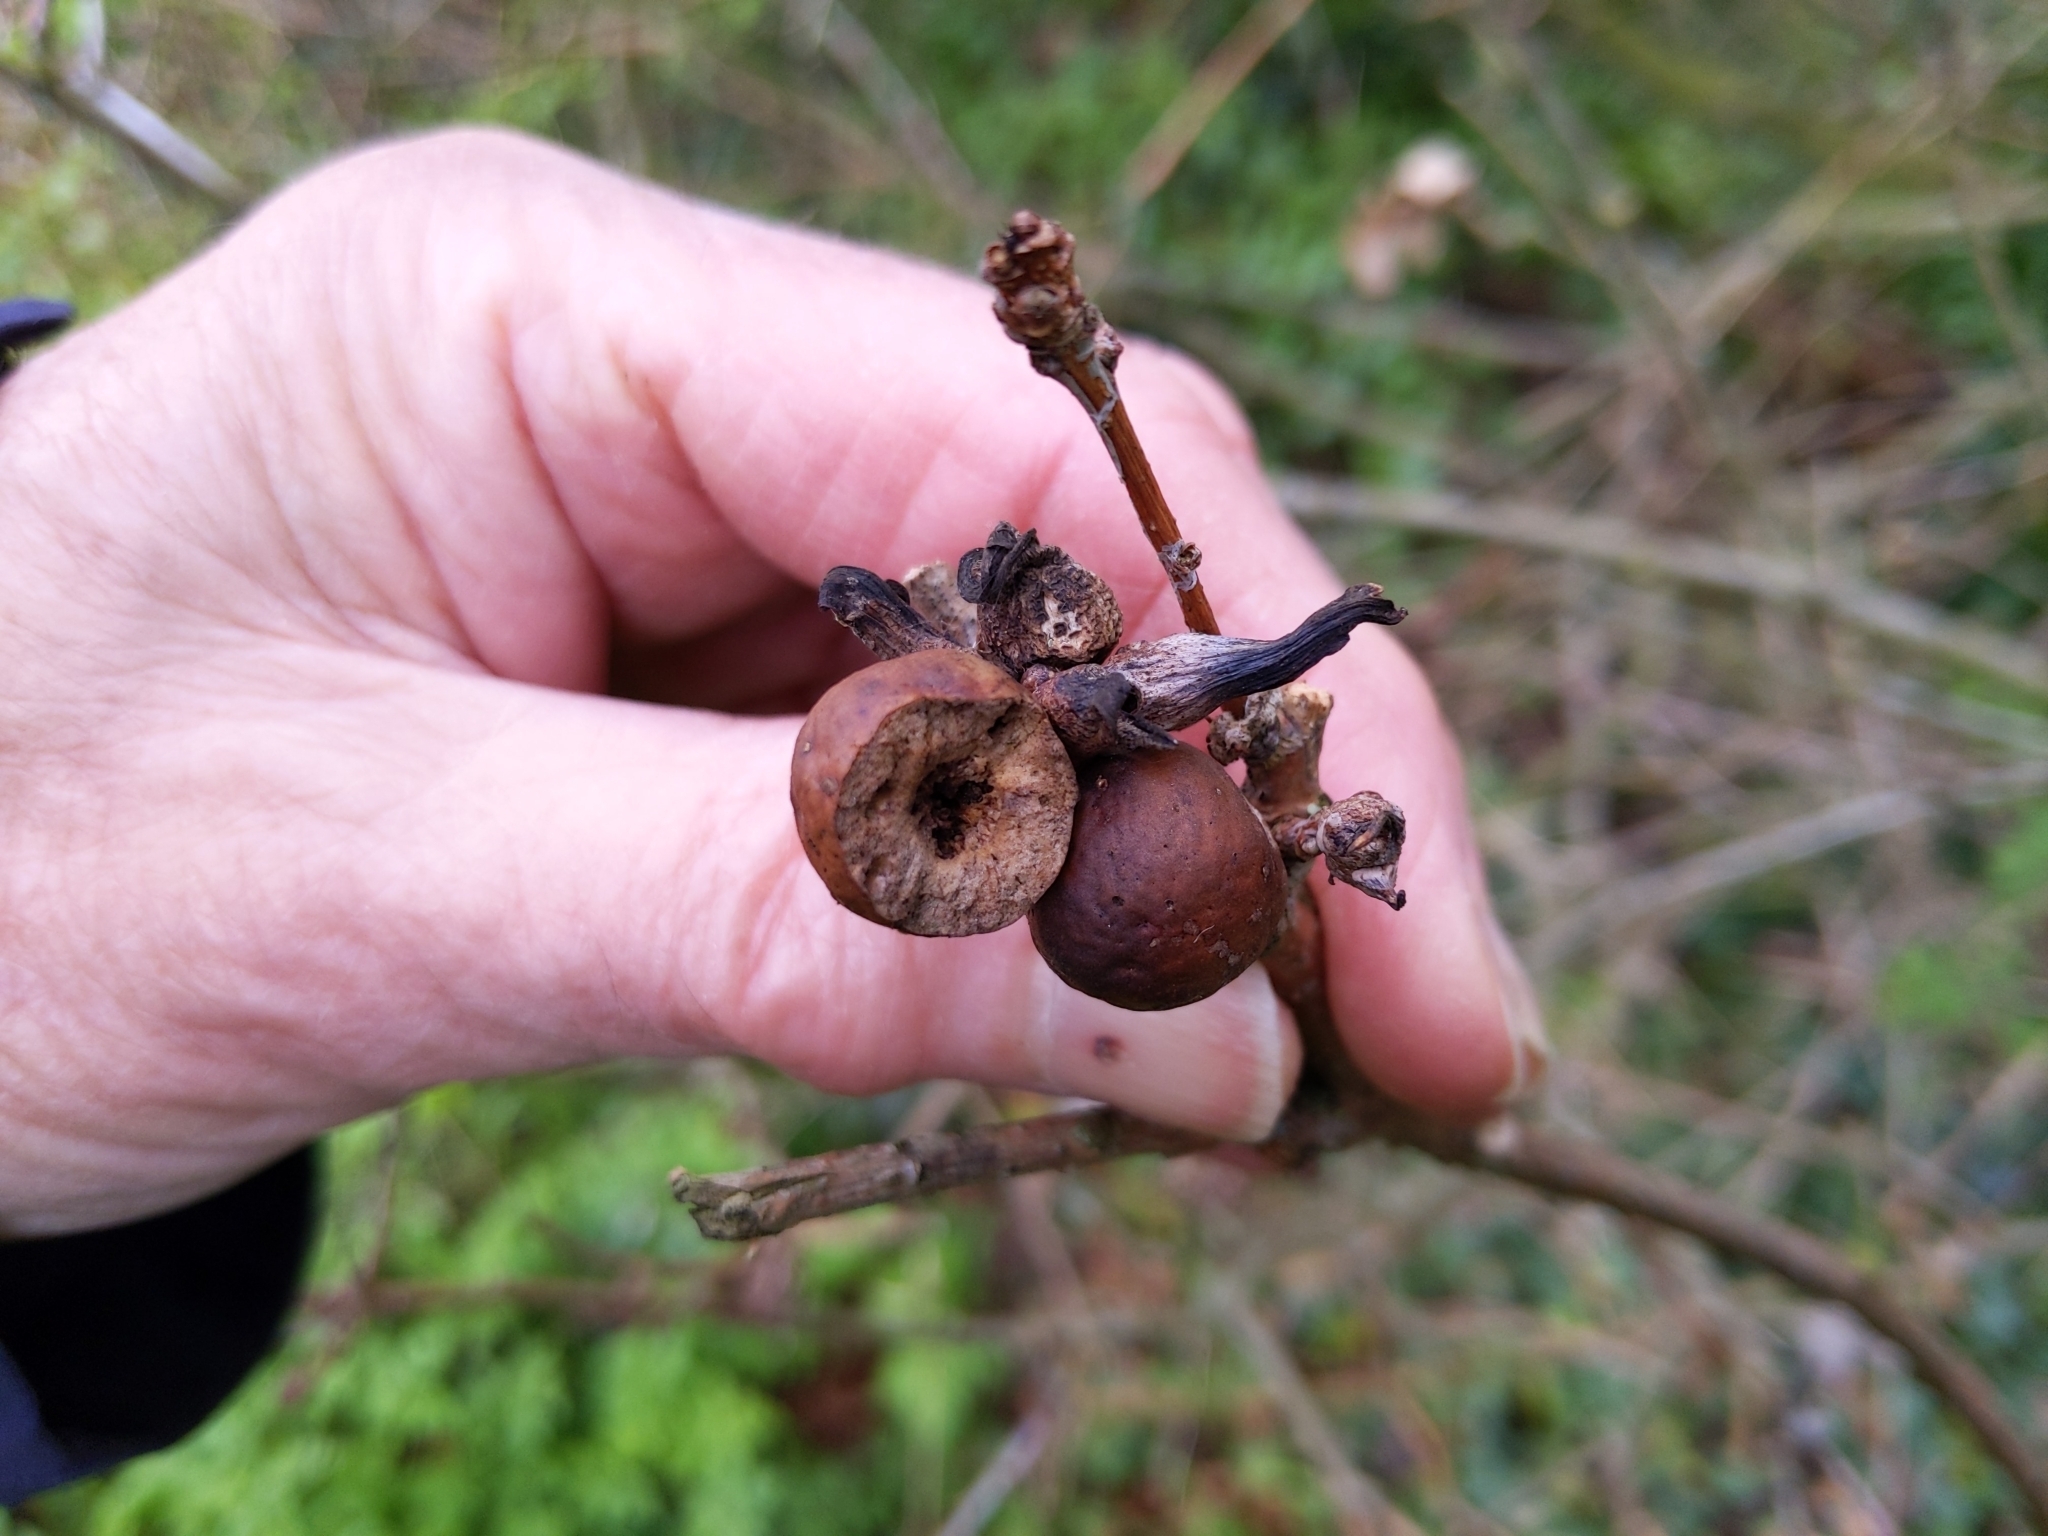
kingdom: Animalia
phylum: Arthropoda
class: Insecta
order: Hymenoptera
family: Cynipidae
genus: Andricus
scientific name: Andricus aries
